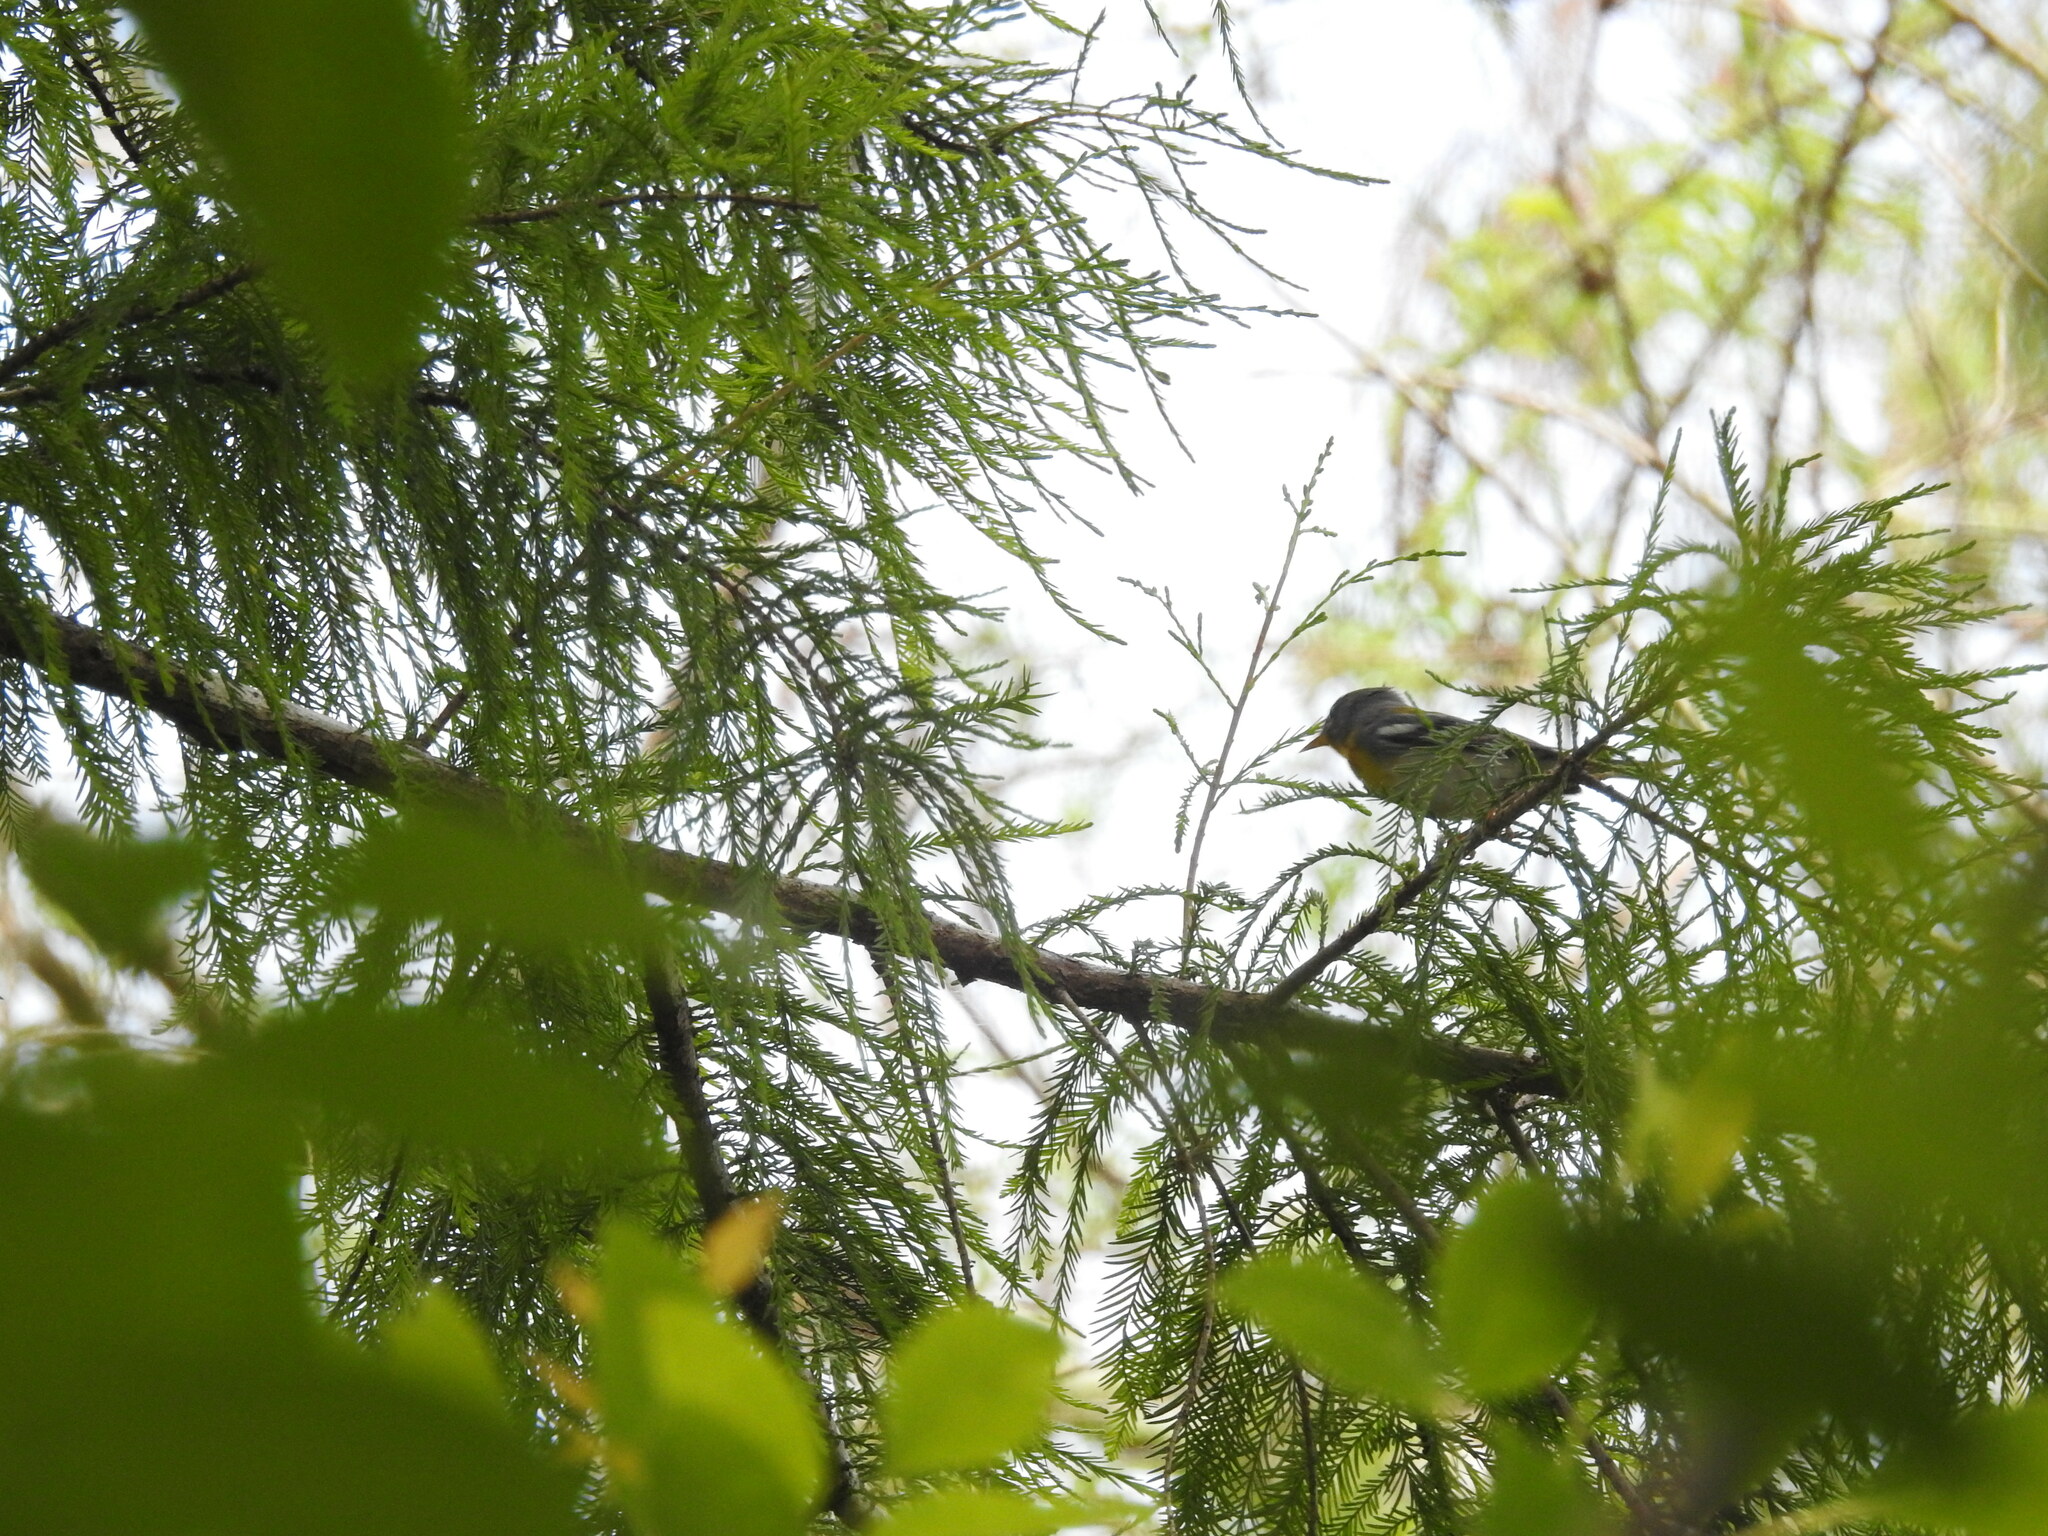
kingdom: Animalia
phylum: Chordata
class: Aves
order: Passeriformes
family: Parulidae
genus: Setophaga
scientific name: Setophaga americana
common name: Northern parula
